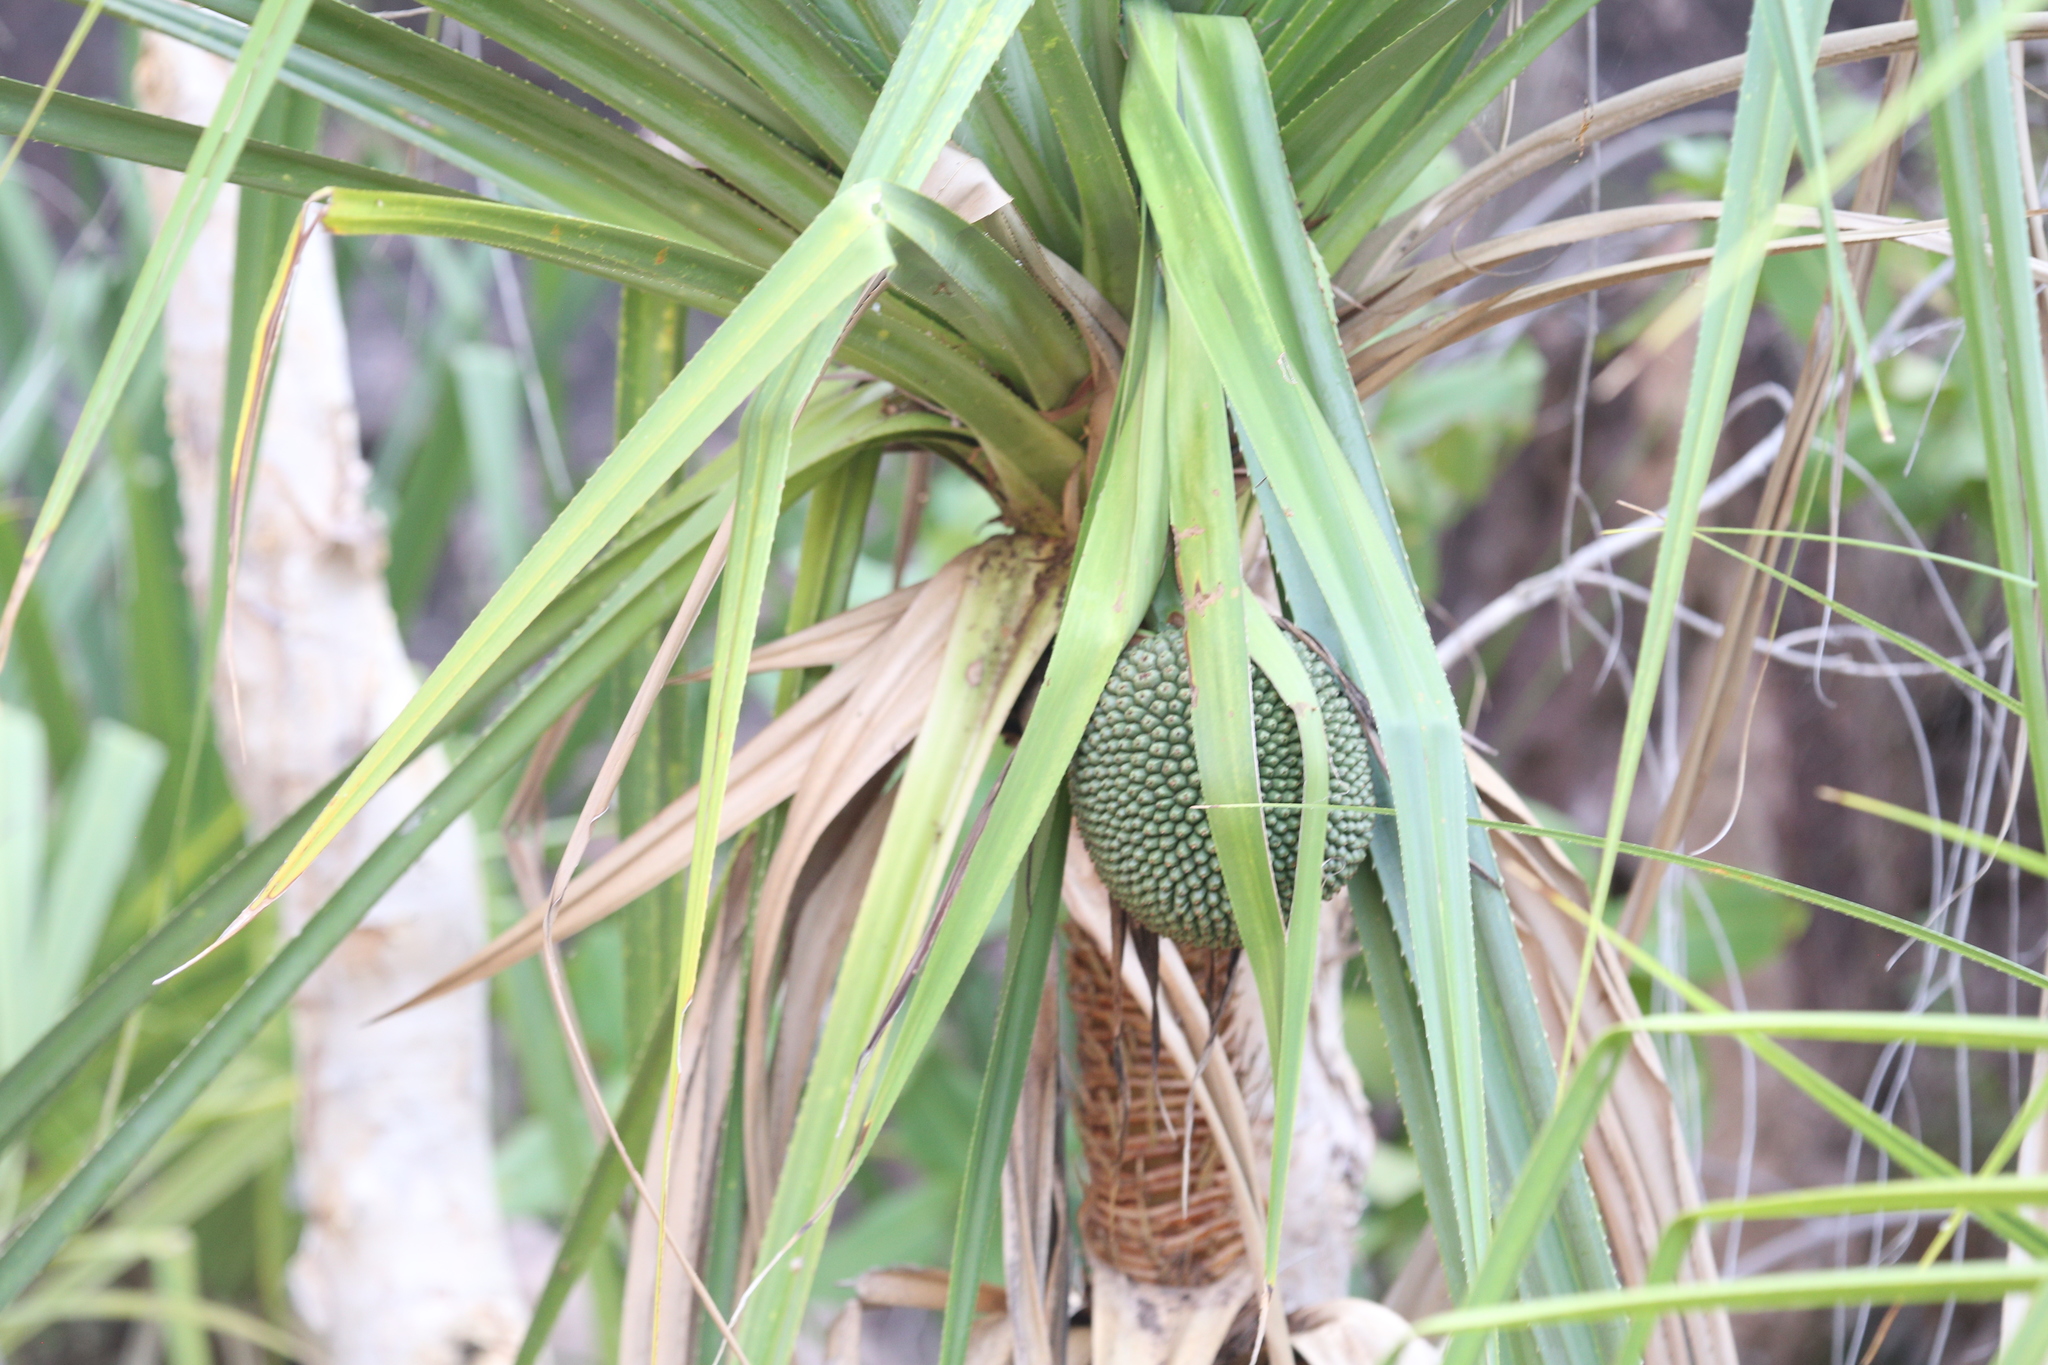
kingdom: Plantae
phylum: Tracheophyta
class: Liliopsida
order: Pandanales
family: Pandanaceae
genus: Pandanus
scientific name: Pandanus aquaticus
